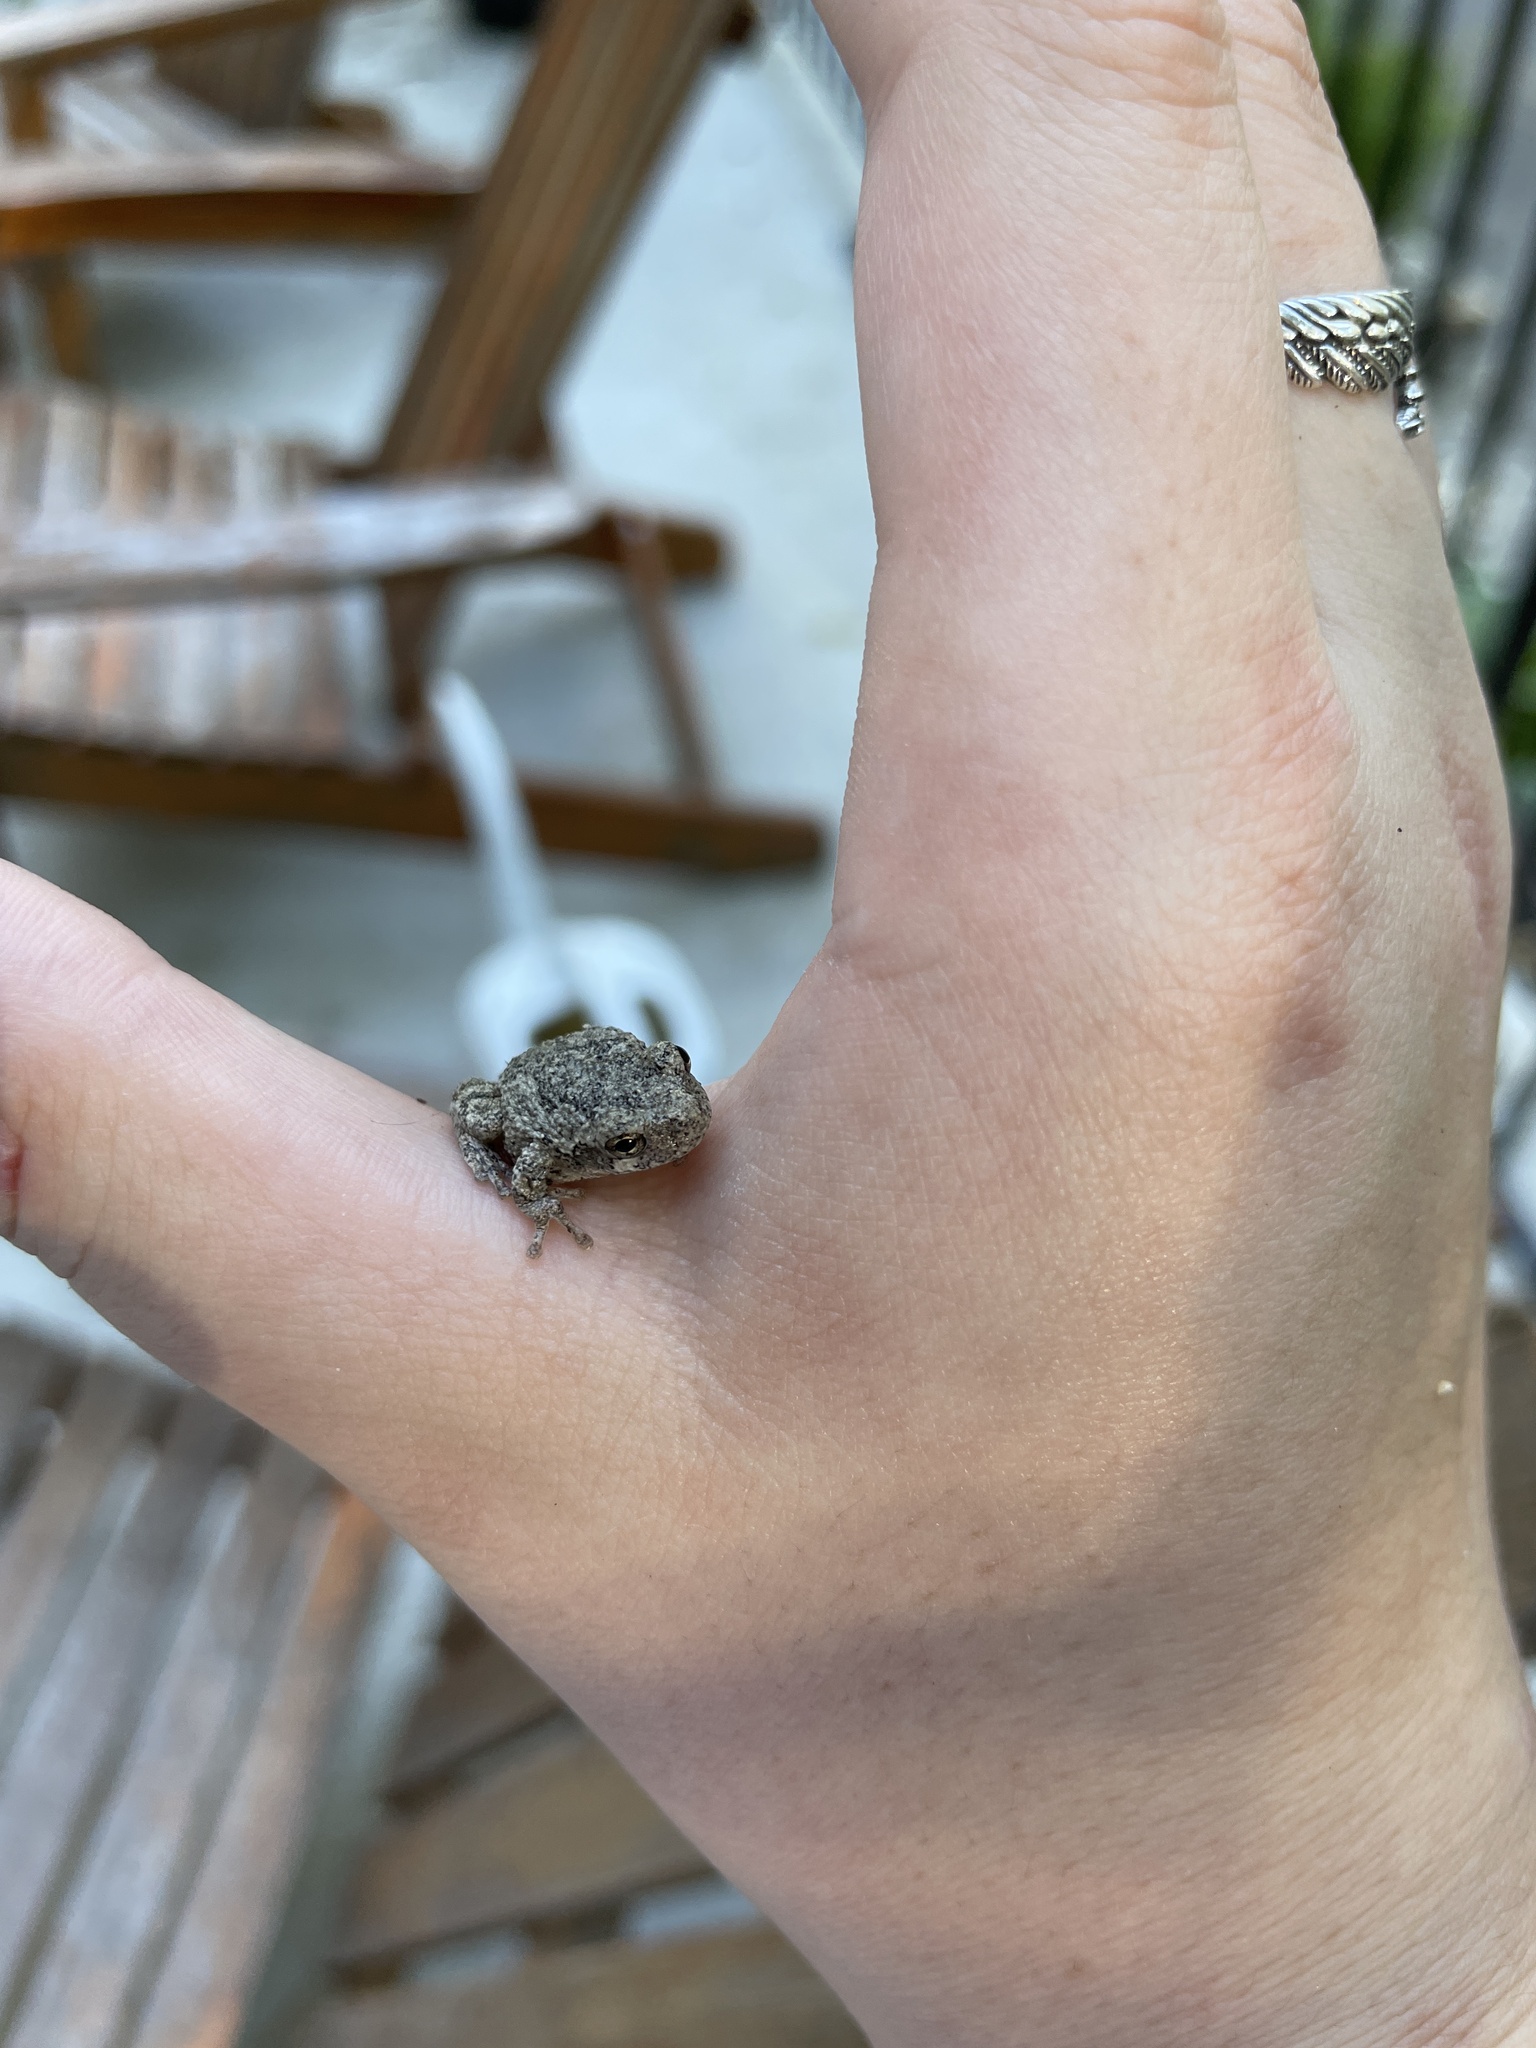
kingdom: Animalia
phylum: Chordata
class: Amphibia
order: Anura
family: Hylidae
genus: Hyla
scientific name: Hyla
